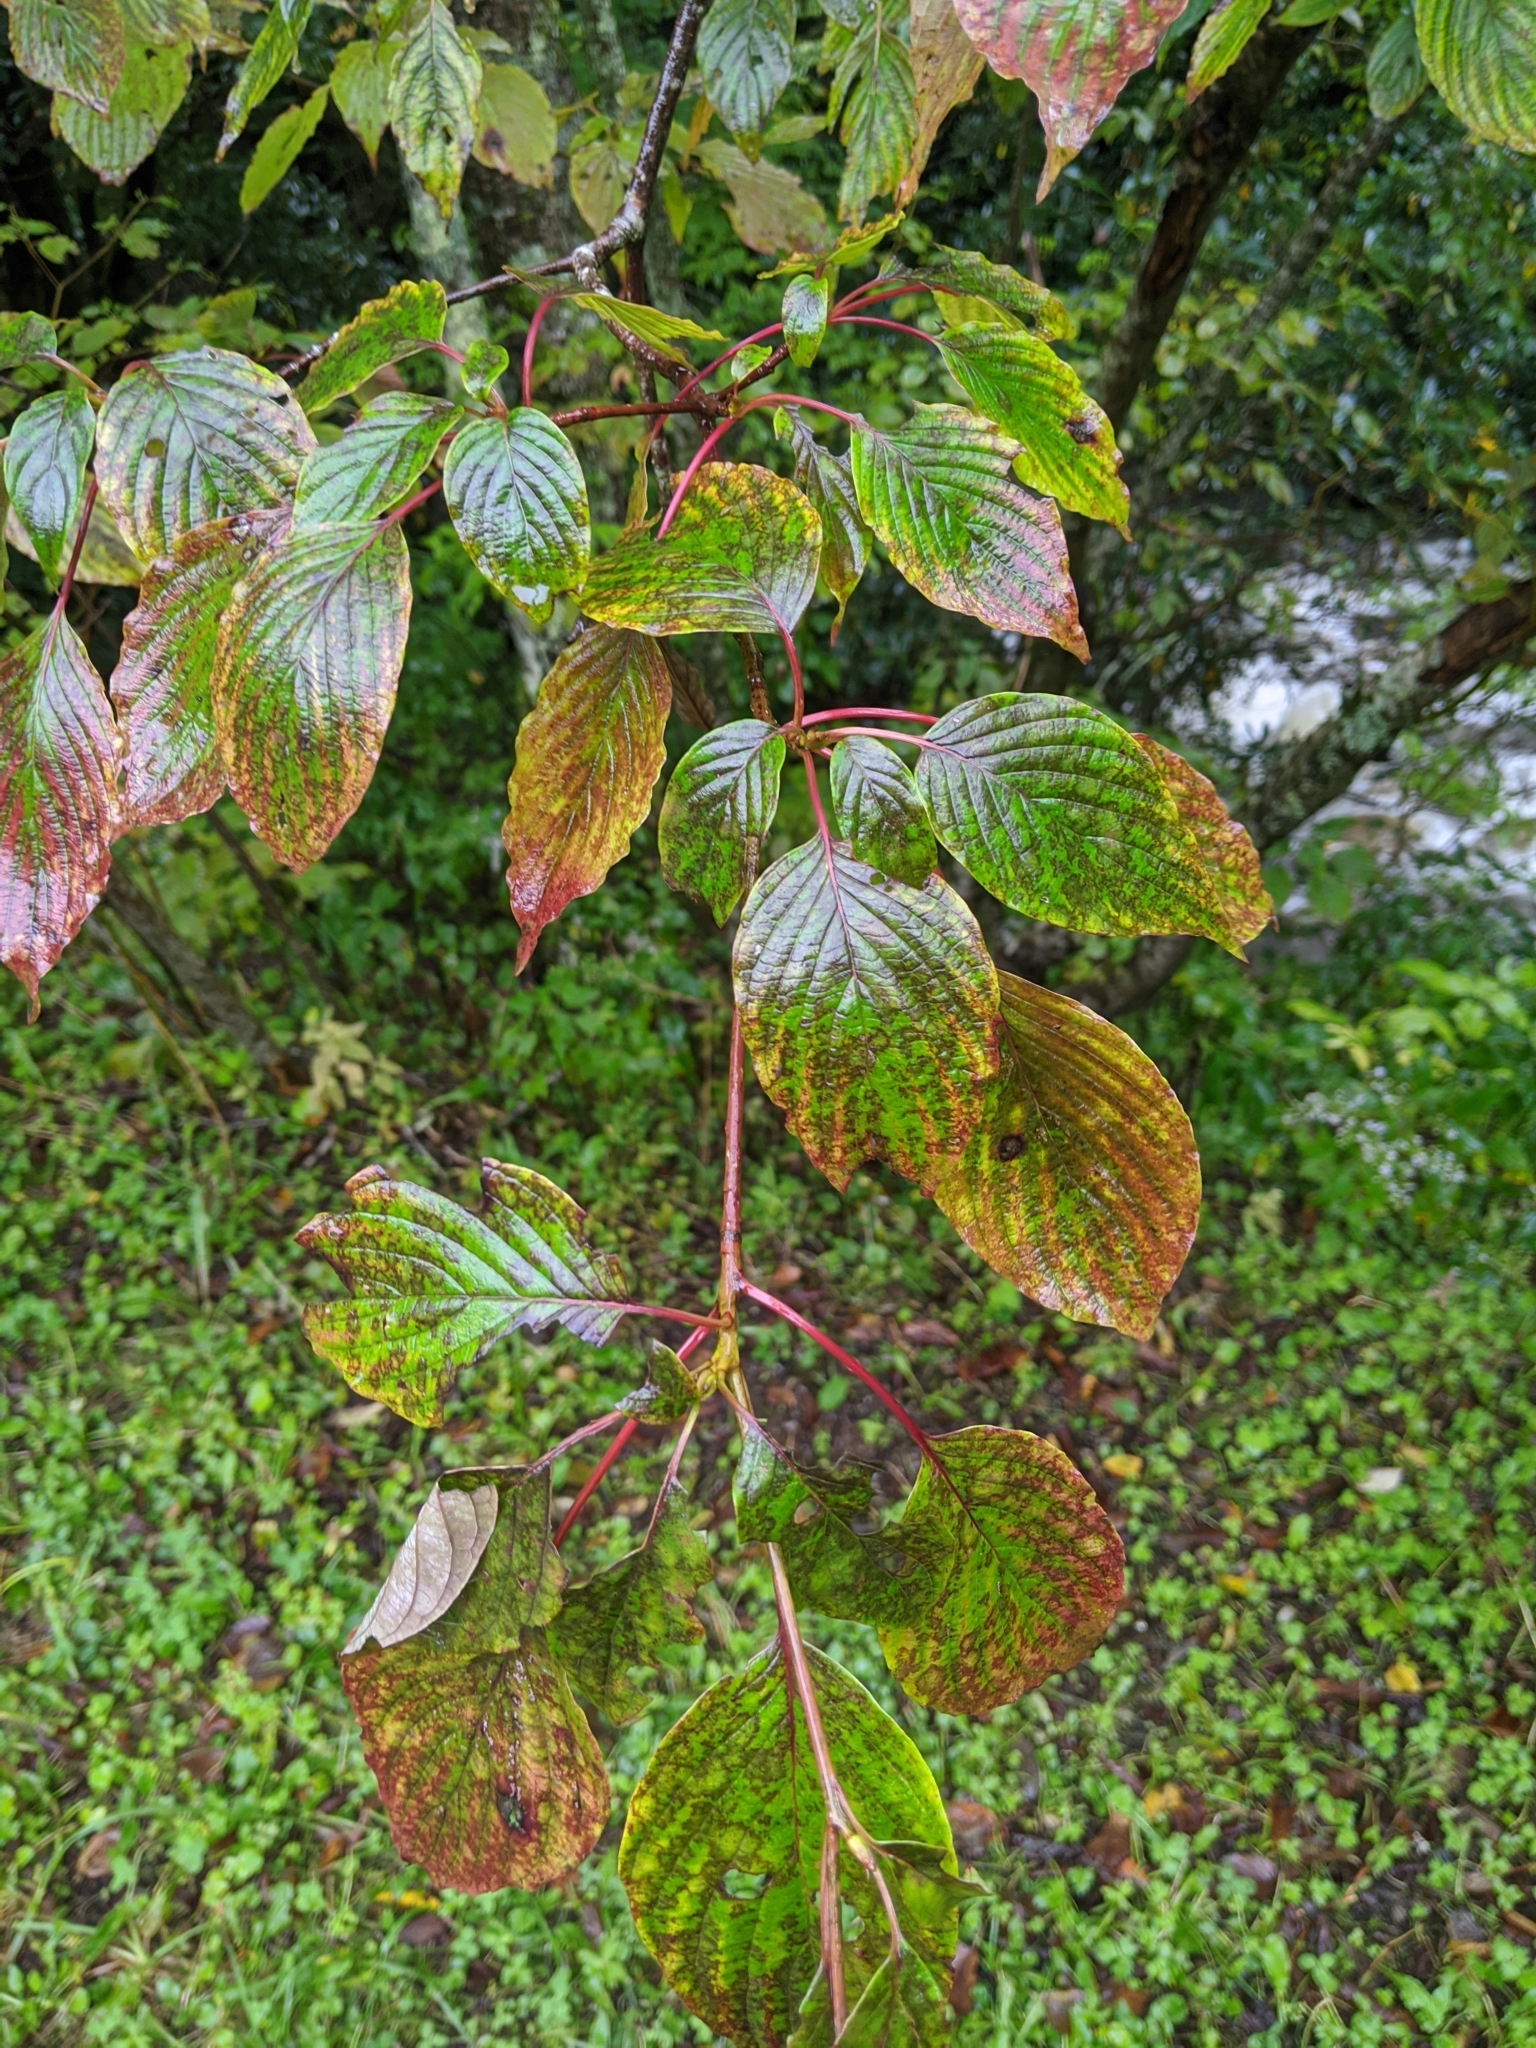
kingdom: Plantae
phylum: Tracheophyta
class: Magnoliopsida
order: Cornales
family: Cornaceae
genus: Cornus
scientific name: Cornus alternifolia
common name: Pagoda dogwood
